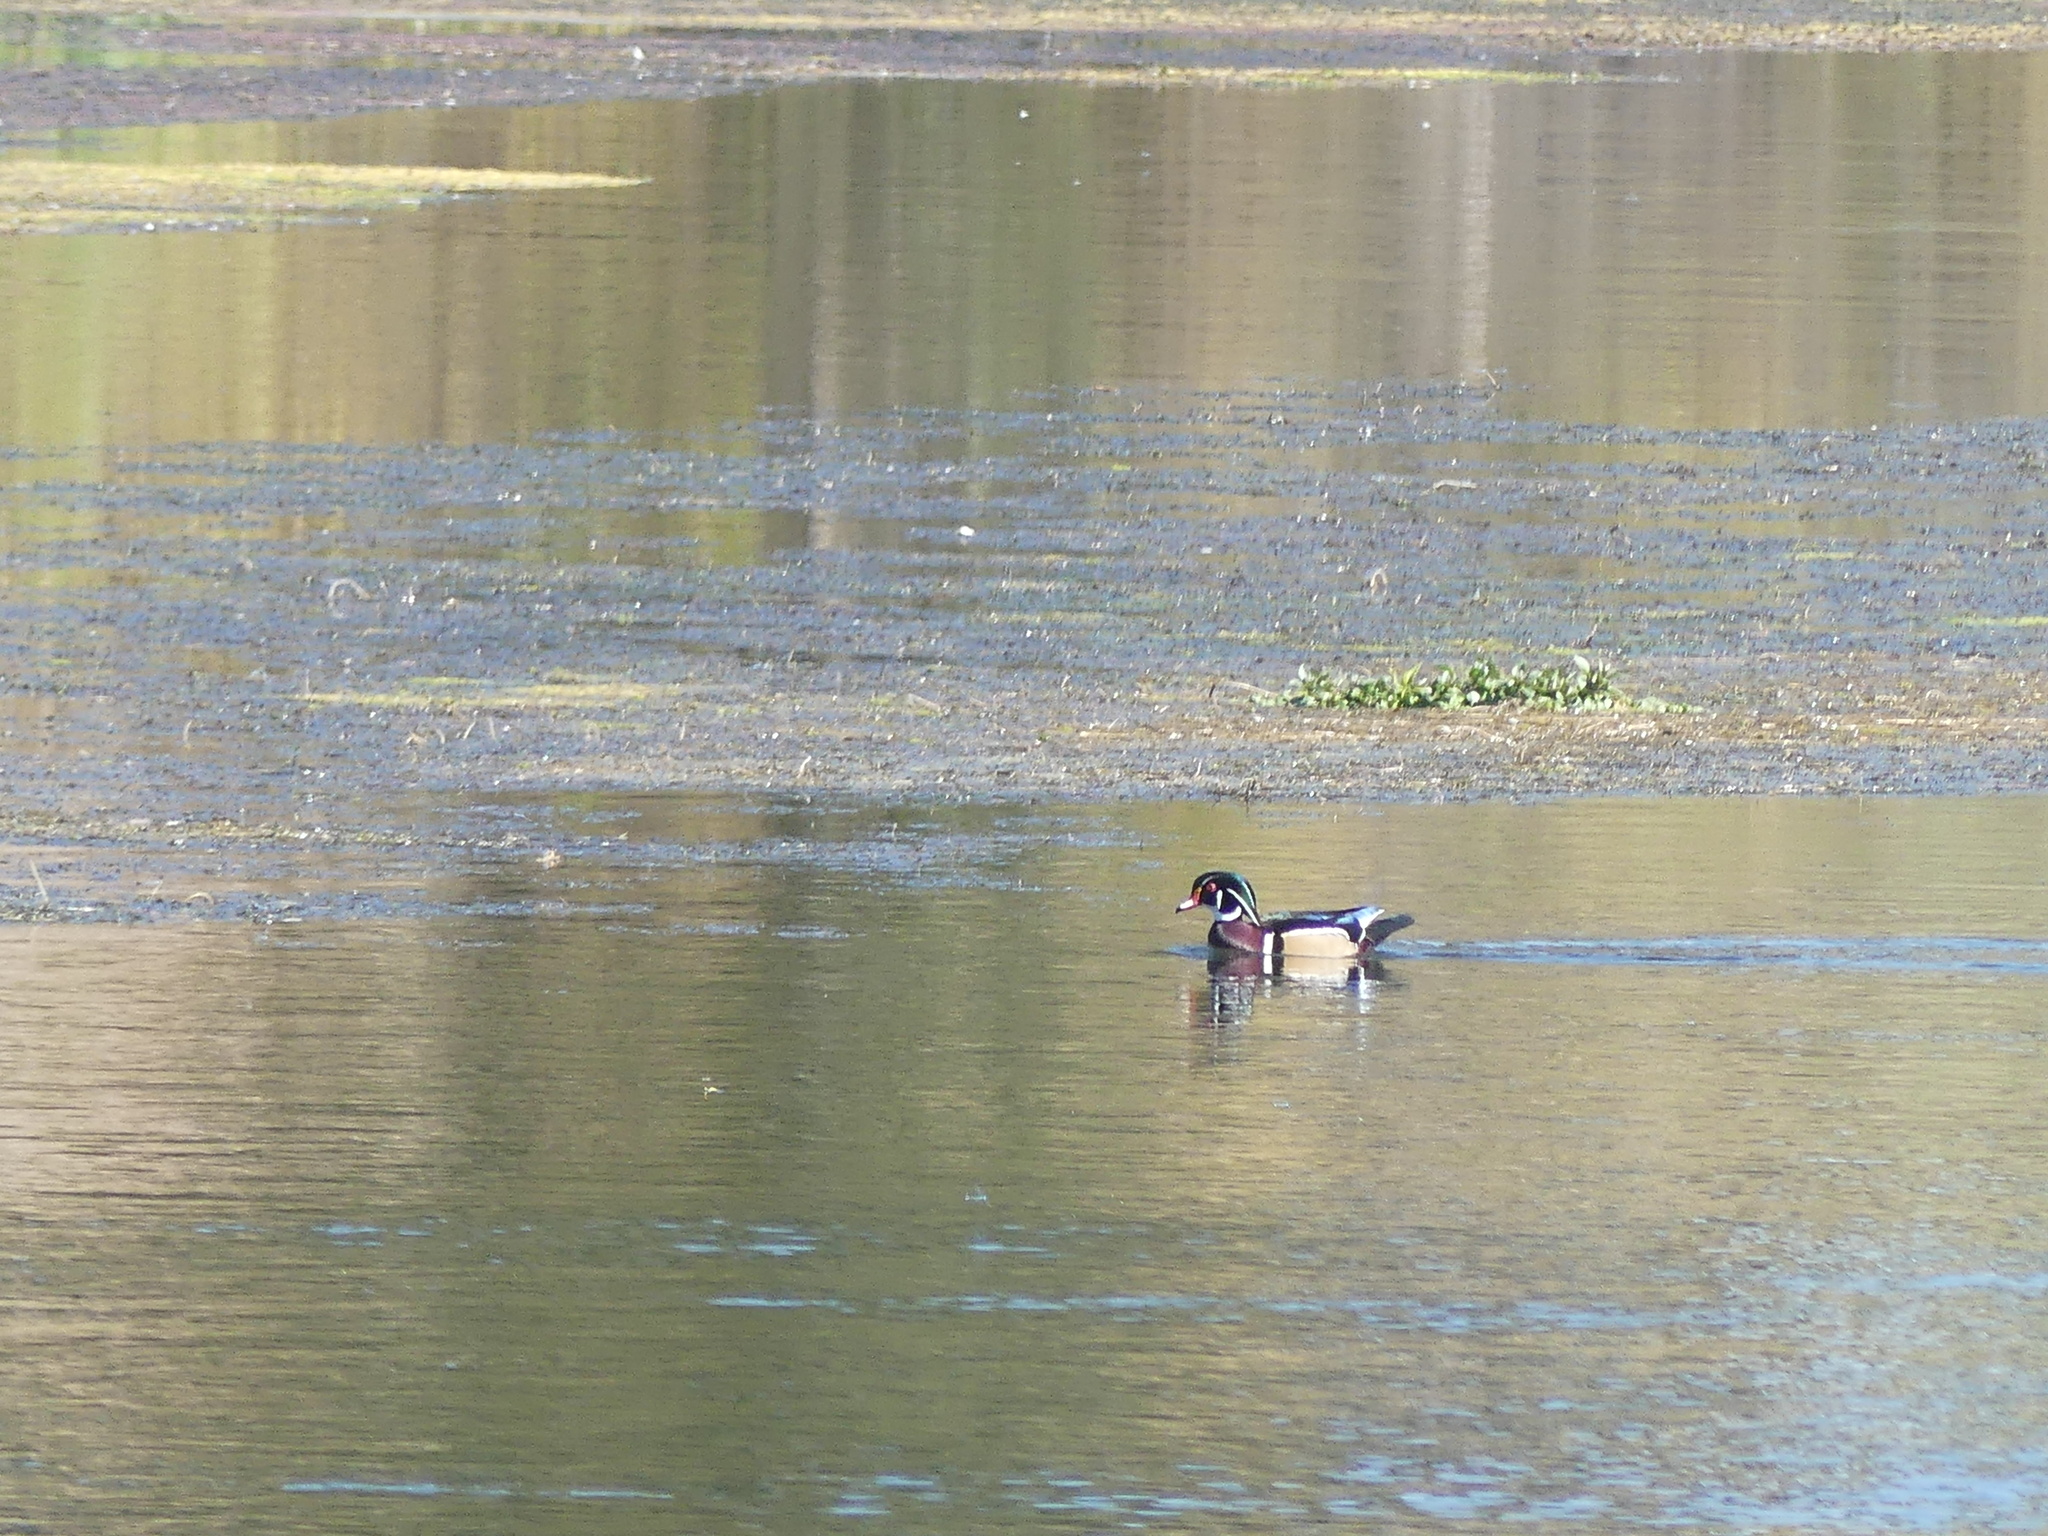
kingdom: Animalia
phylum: Chordata
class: Aves
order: Anseriformes
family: Anatidae
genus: Aix
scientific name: Aix sponsa
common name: Wood duck
